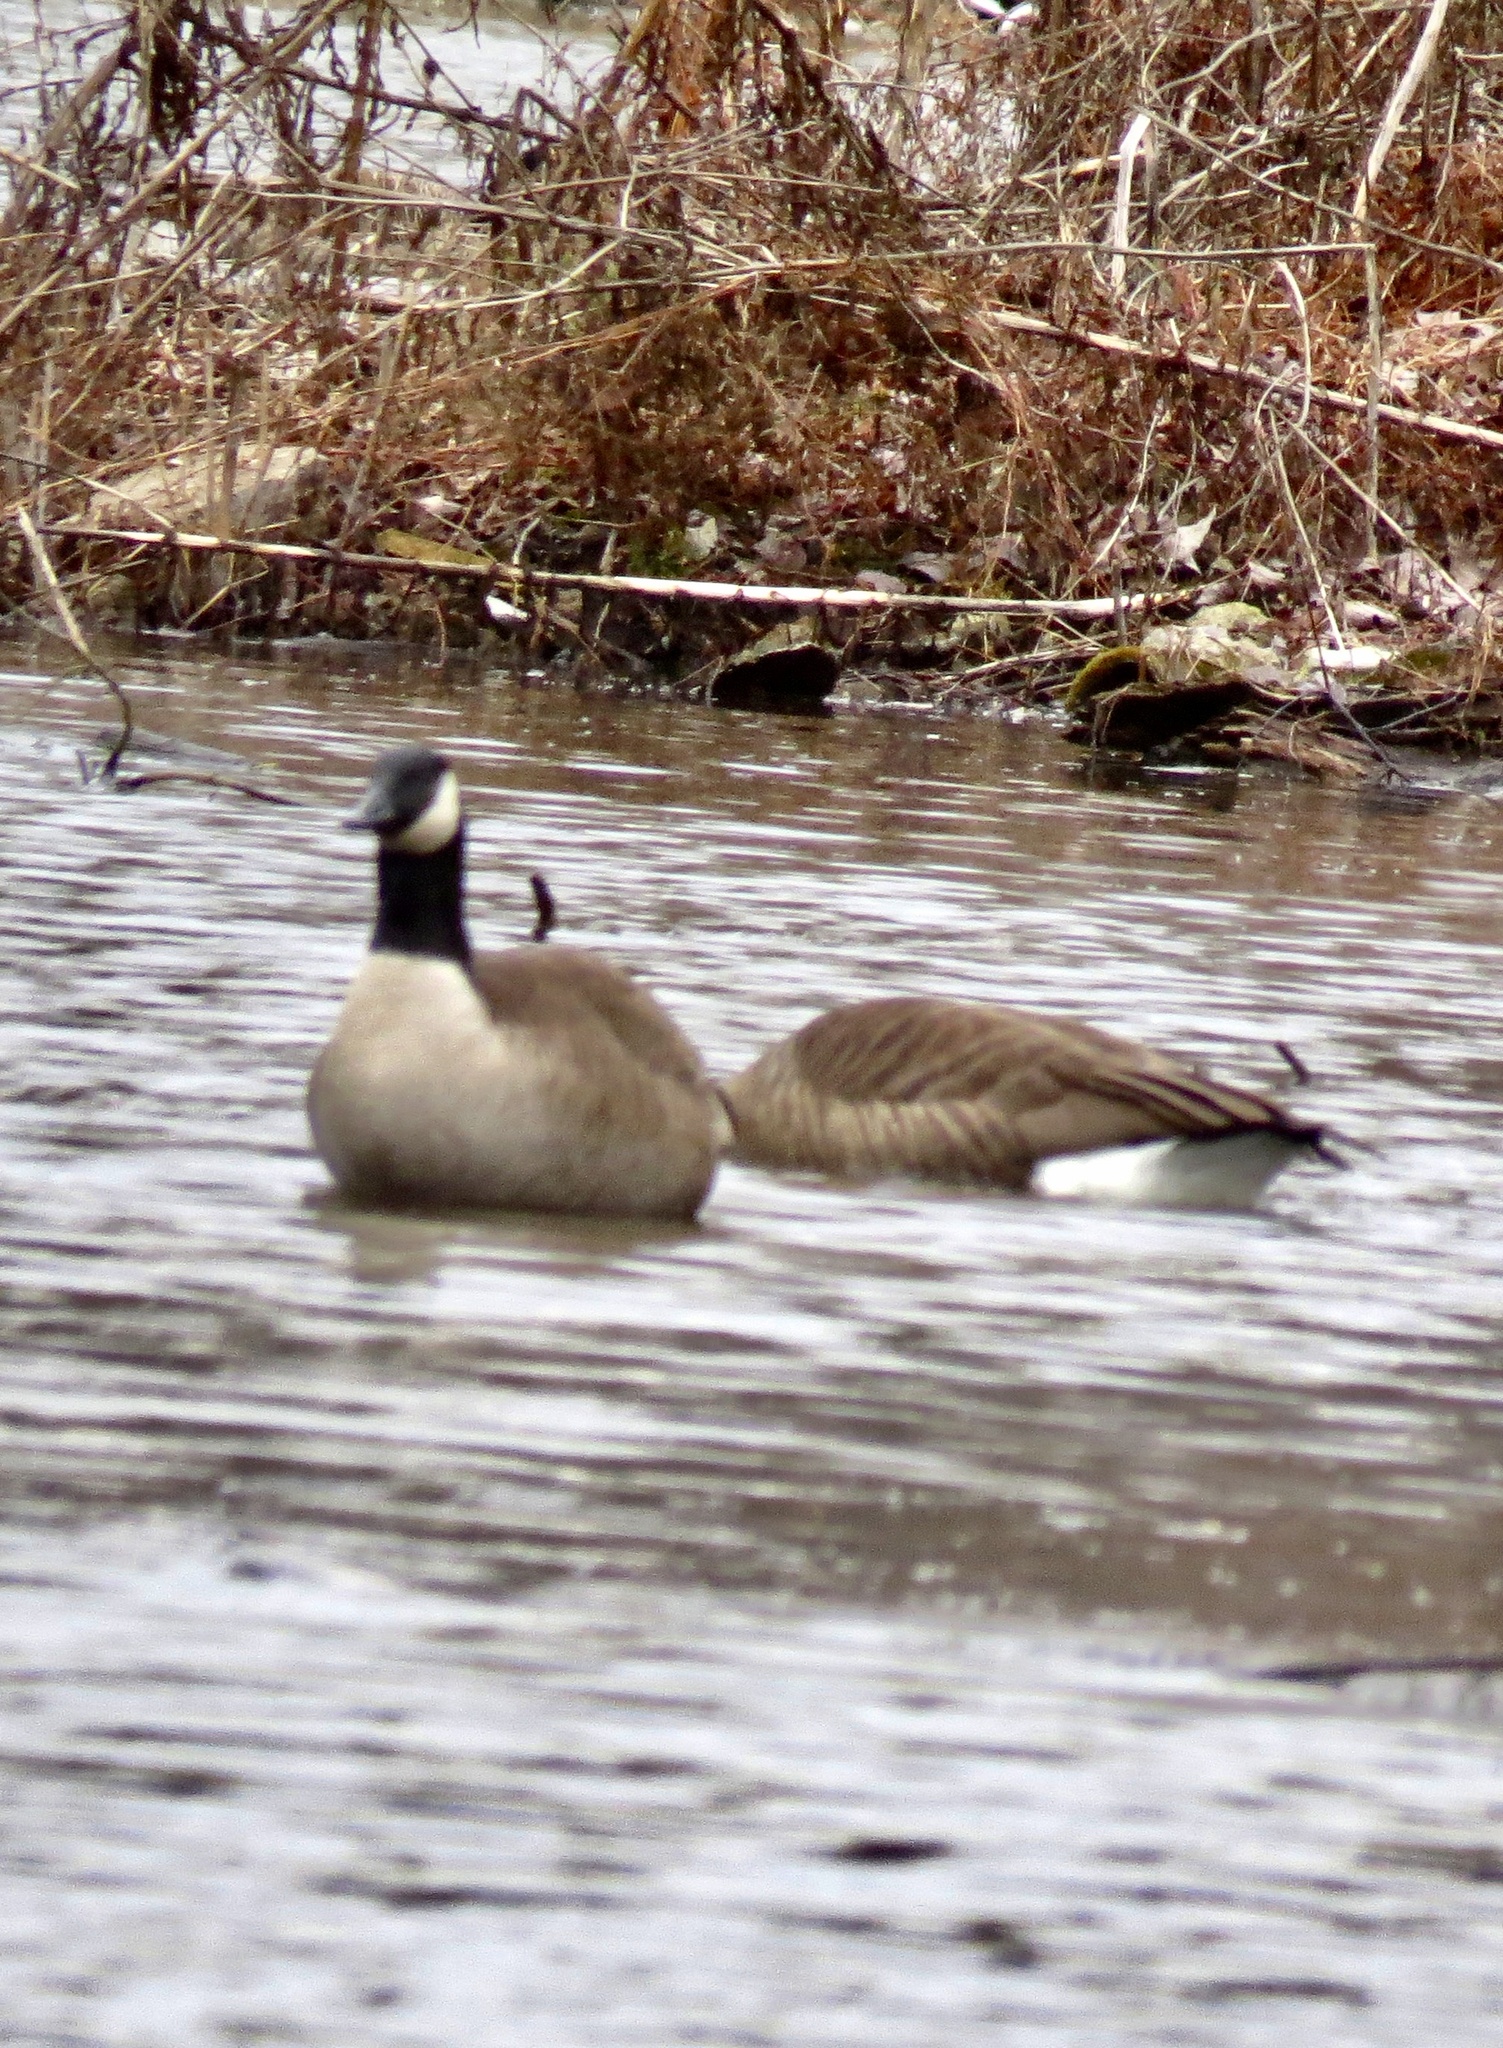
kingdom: Animalia
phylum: Chordata
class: Aves
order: Anseriformes
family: Anatidae
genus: Branta
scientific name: Branta canadensis
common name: Canada goose
